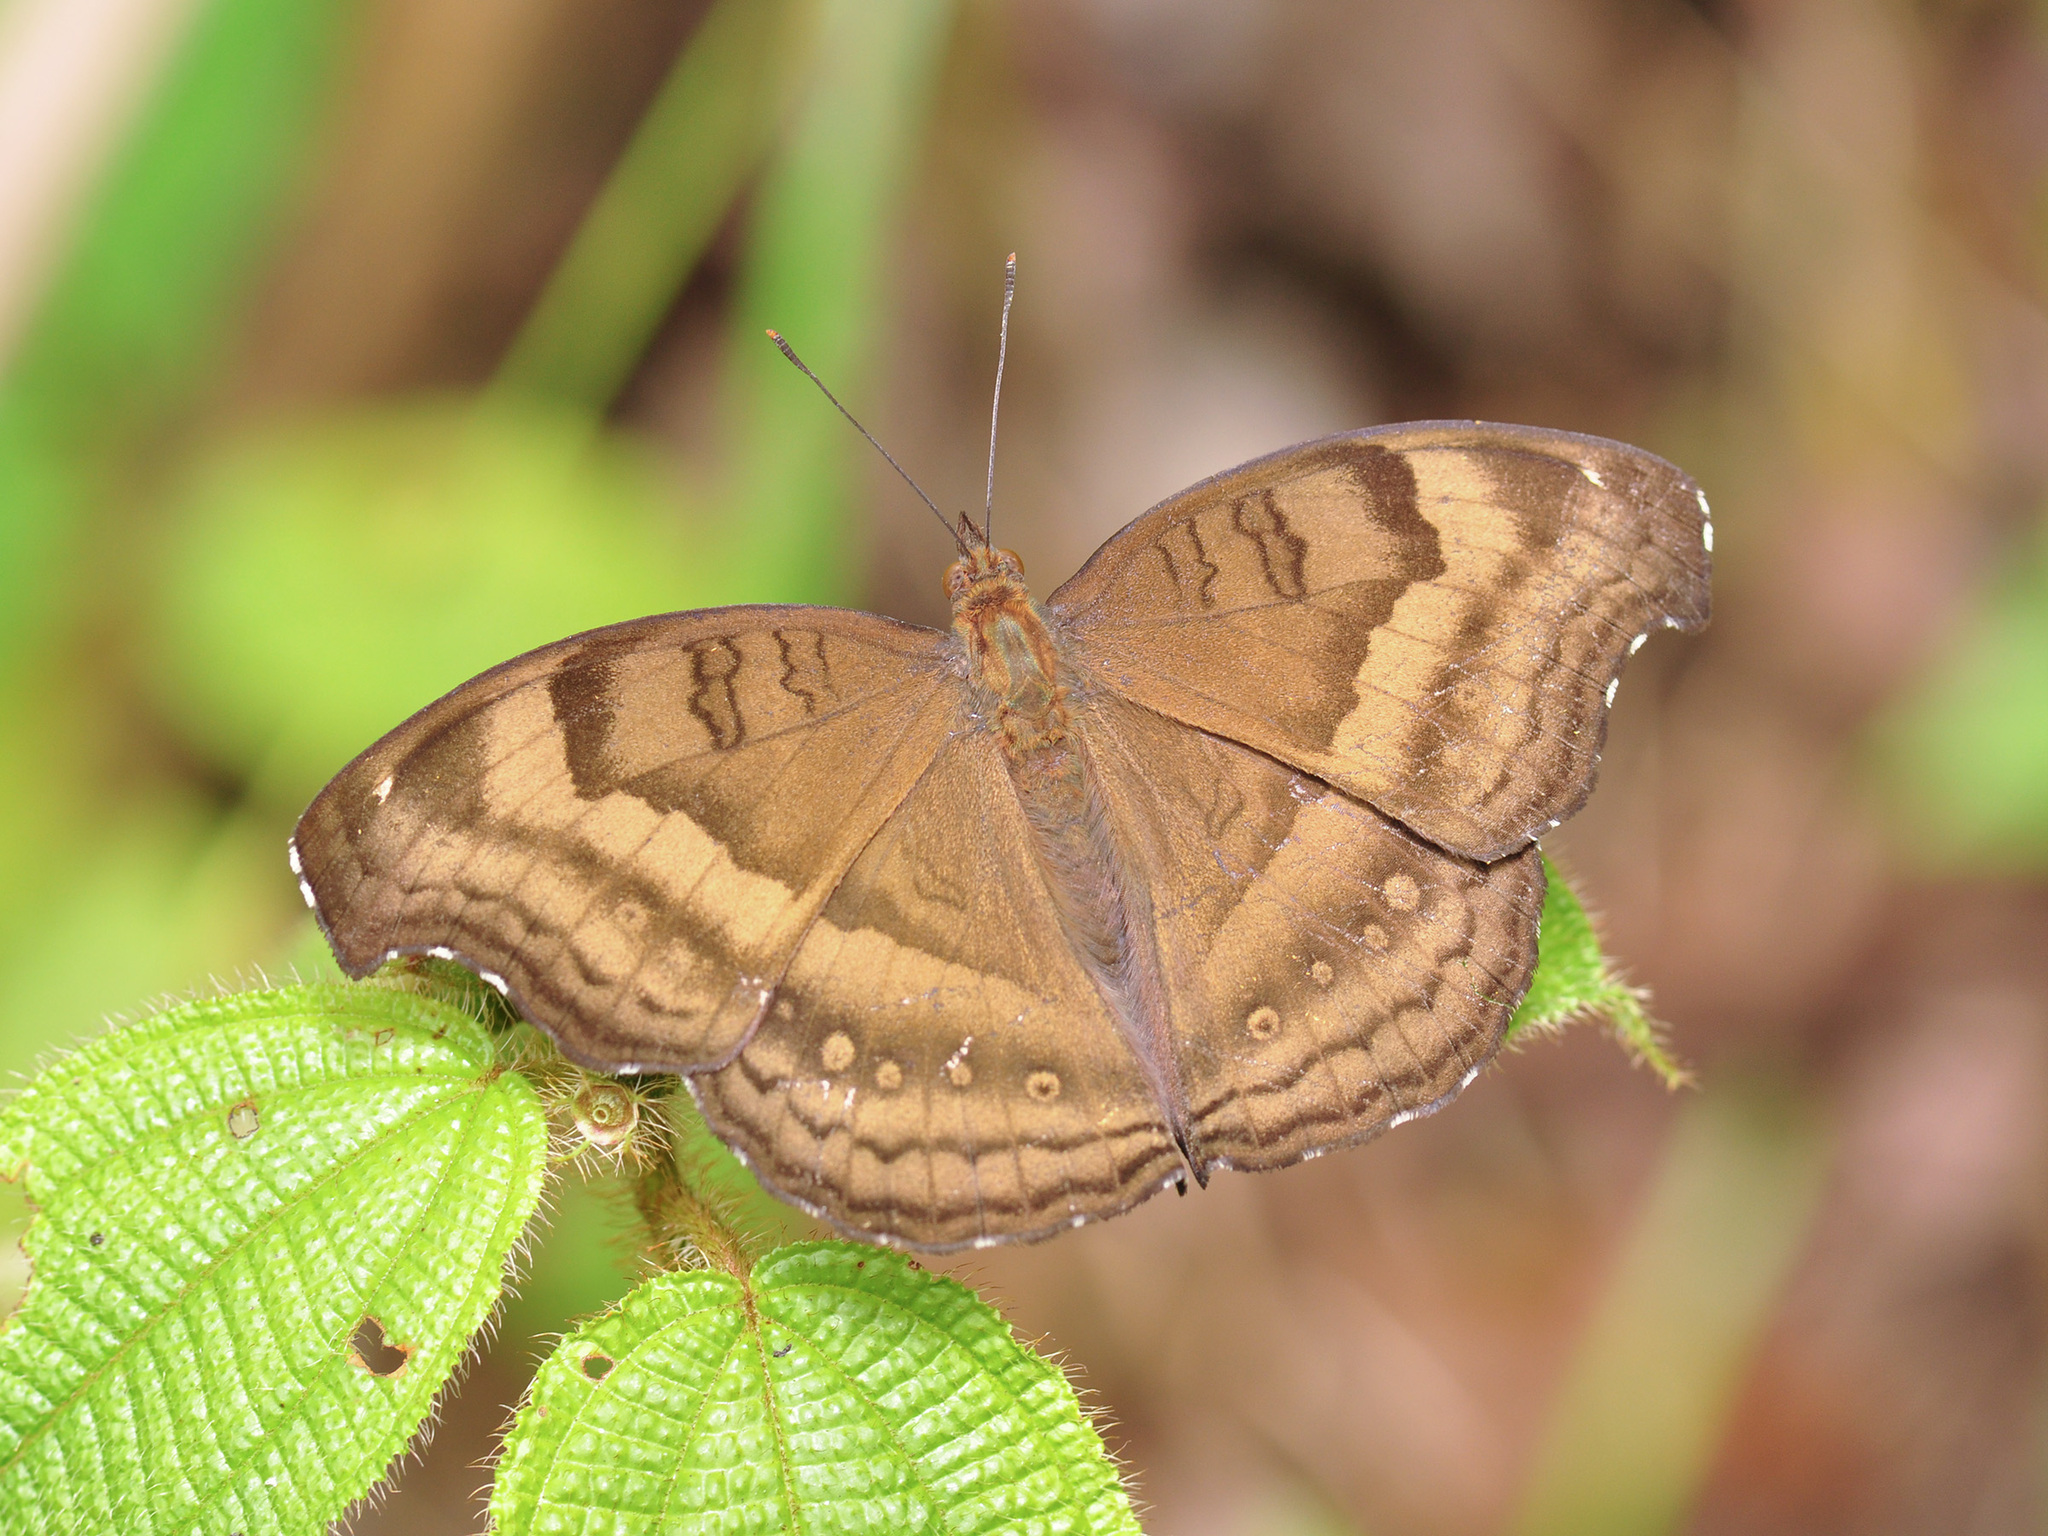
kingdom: Animalia
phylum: Arthropoda
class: Insecta
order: Lepidoptera
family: Nymphalidae
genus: Junonia
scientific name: Junonia iphita
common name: Chocolate pansy
